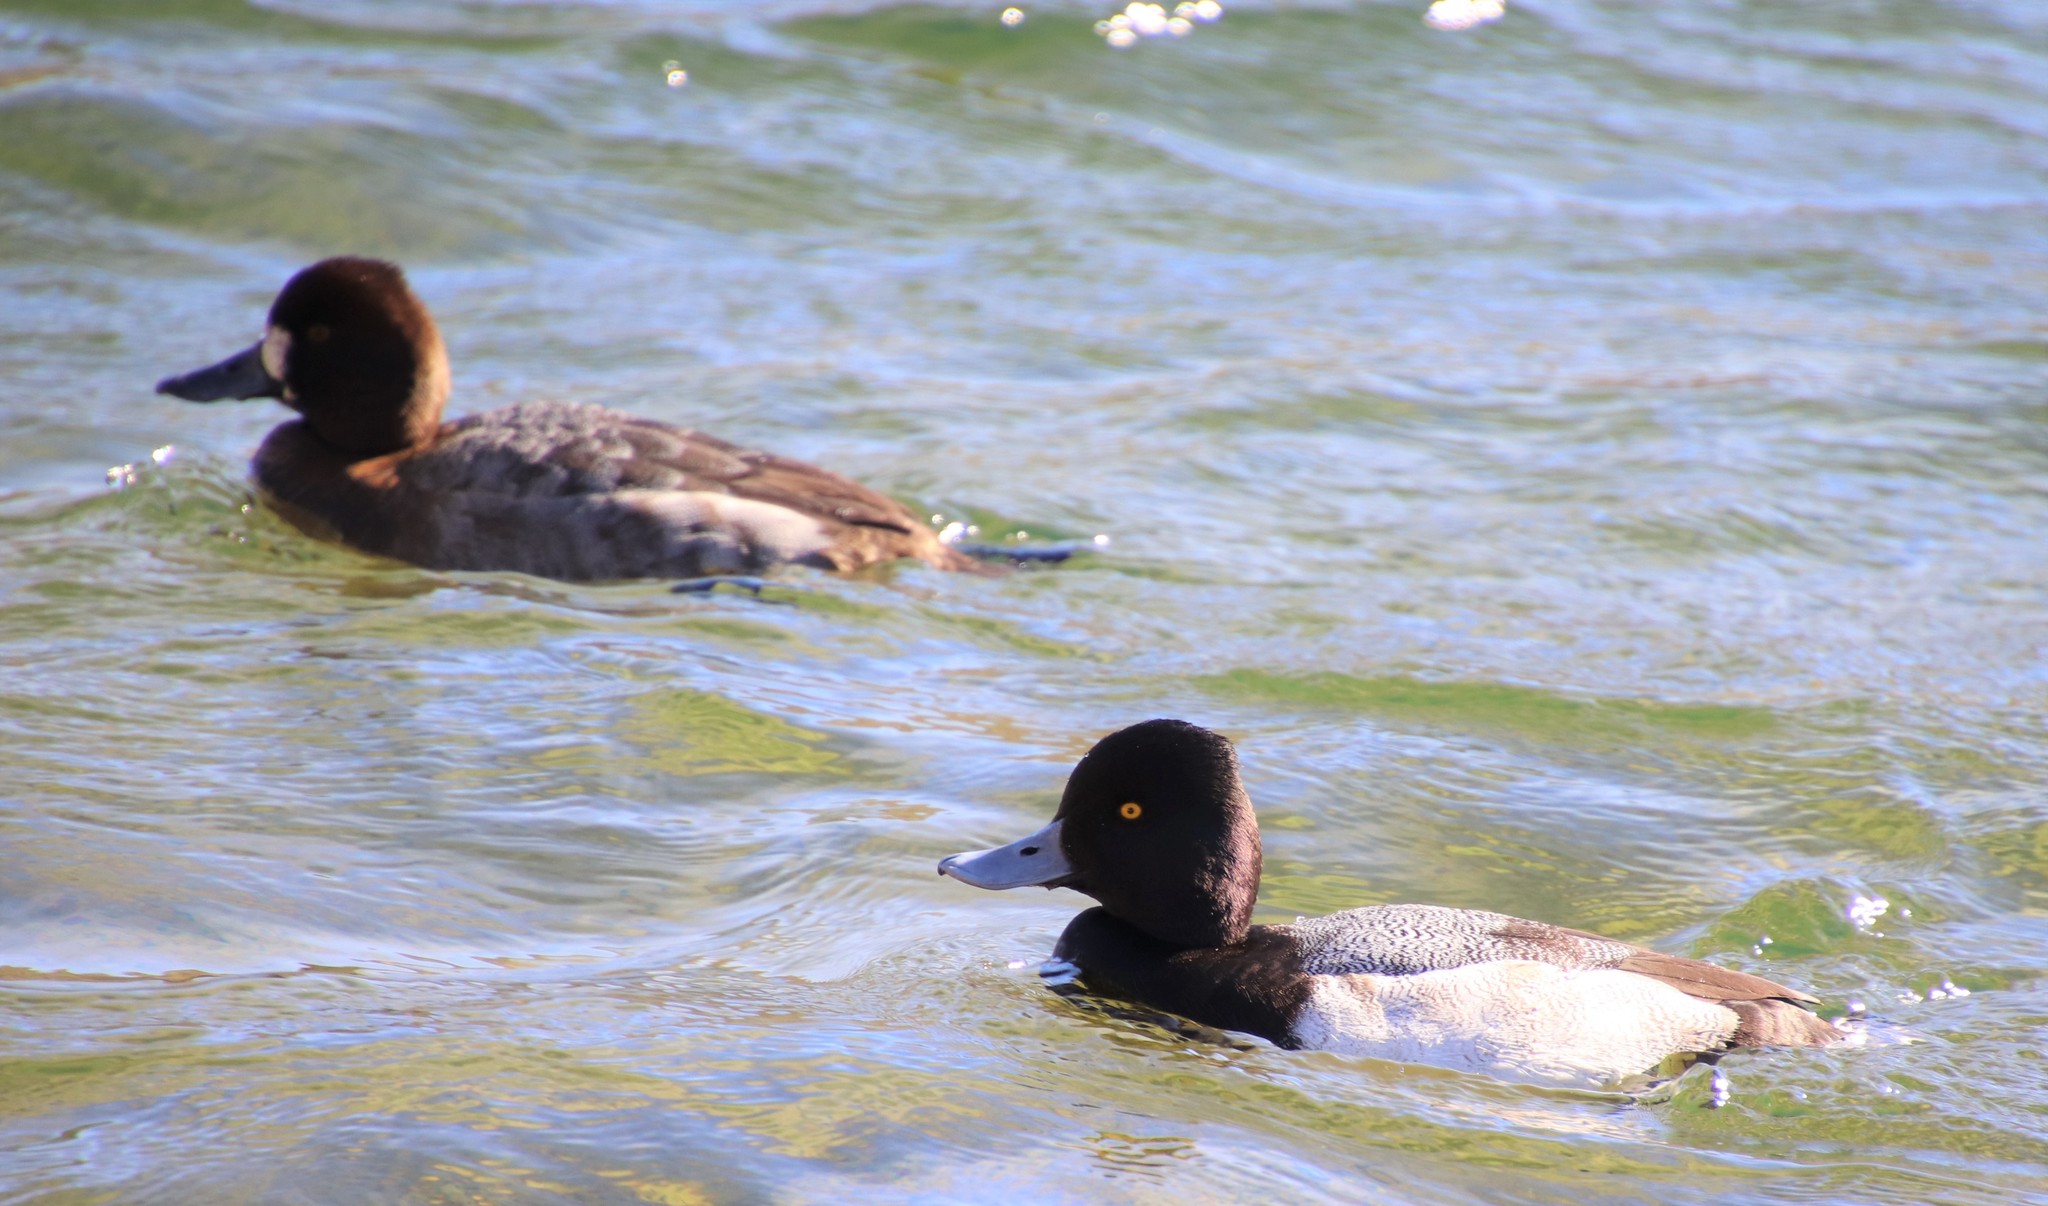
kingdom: Animalia
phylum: Chordata
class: Aves
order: Anseriformes
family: Anatidae
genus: Aythya
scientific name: Aythya affinis
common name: Lesser scaup
